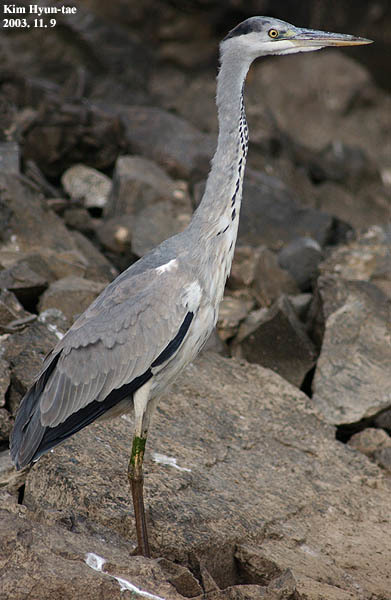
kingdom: Animalia
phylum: Chordata
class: Aves
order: Pelecaniformes
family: Ardeidae
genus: Ardea
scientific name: Ardea cinerea
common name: Grey heron
